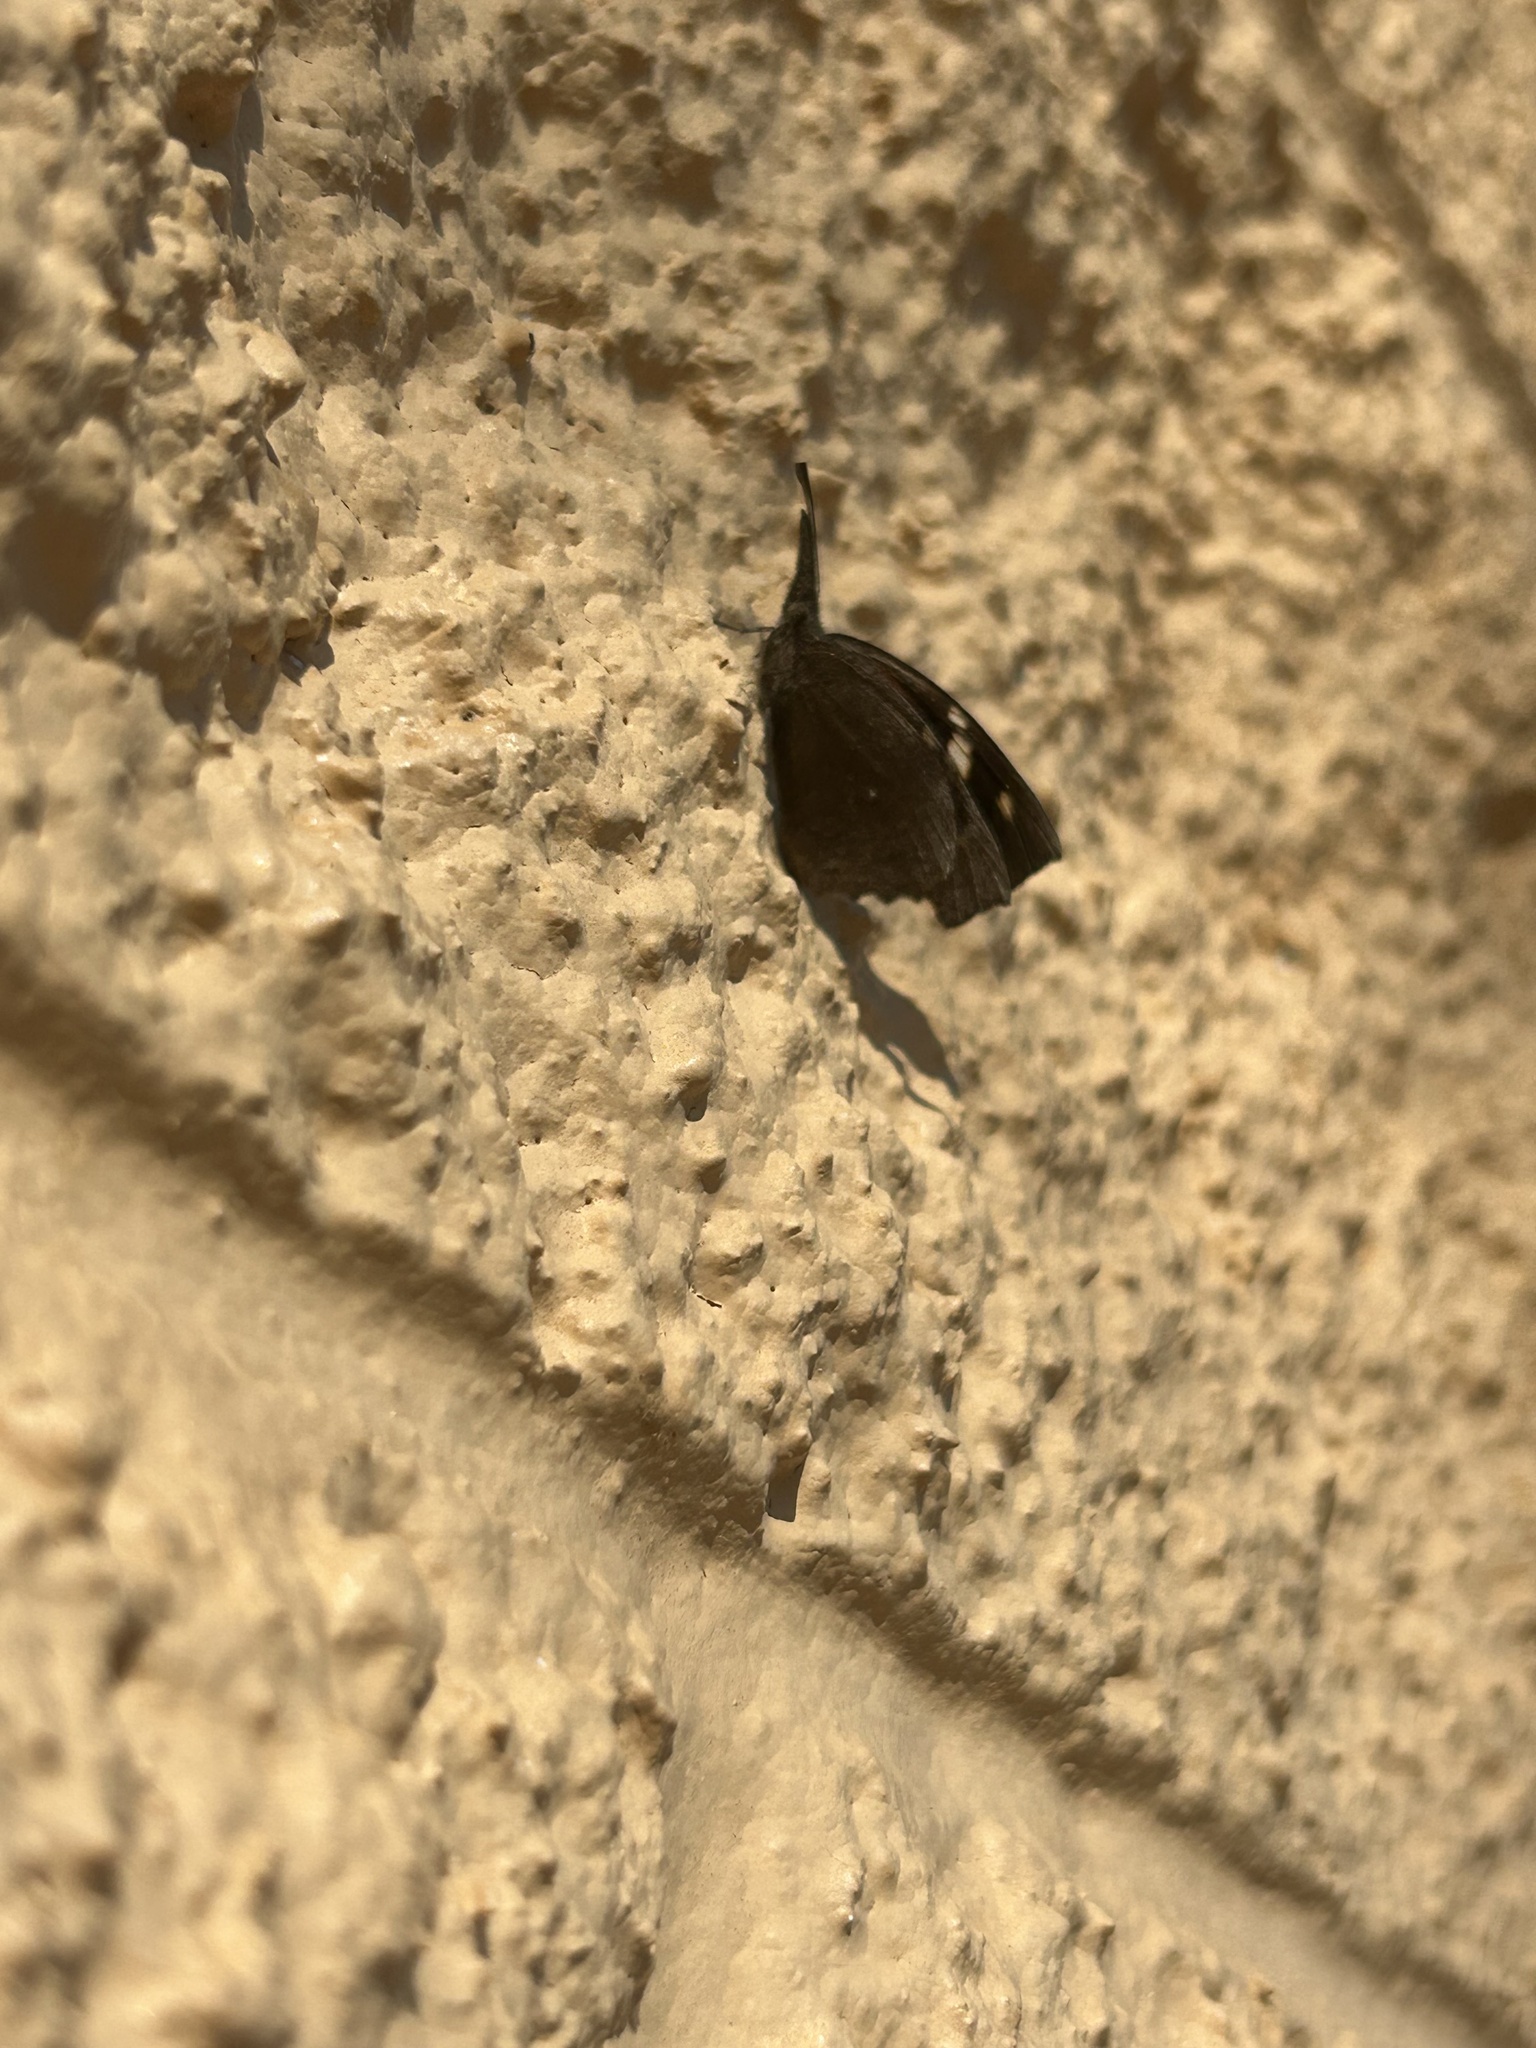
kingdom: Animalia
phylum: Arthropoda
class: Insecta
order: Lepidoptera
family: Nymphalidae
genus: Libytheana
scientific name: Libytheana carinenta
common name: American snout
